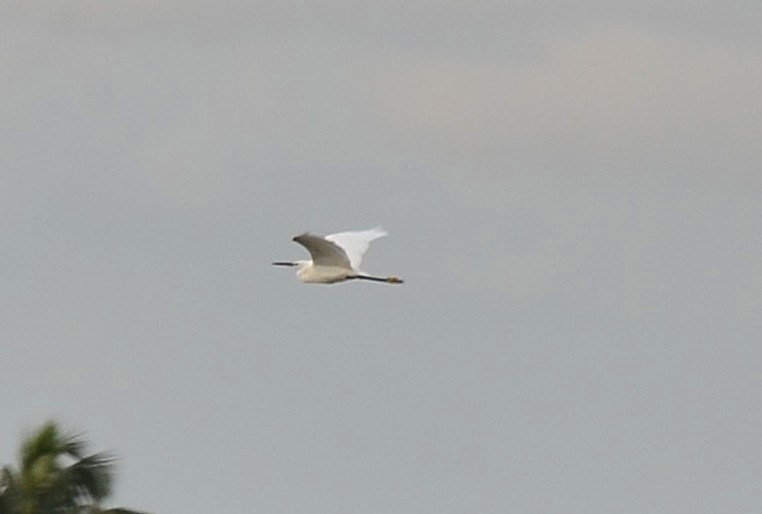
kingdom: Animalia
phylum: Chordata
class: Aves
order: Pelecaniformes
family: Ardeidae
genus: Egretta
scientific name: Egretta garzetta
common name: Little egret
